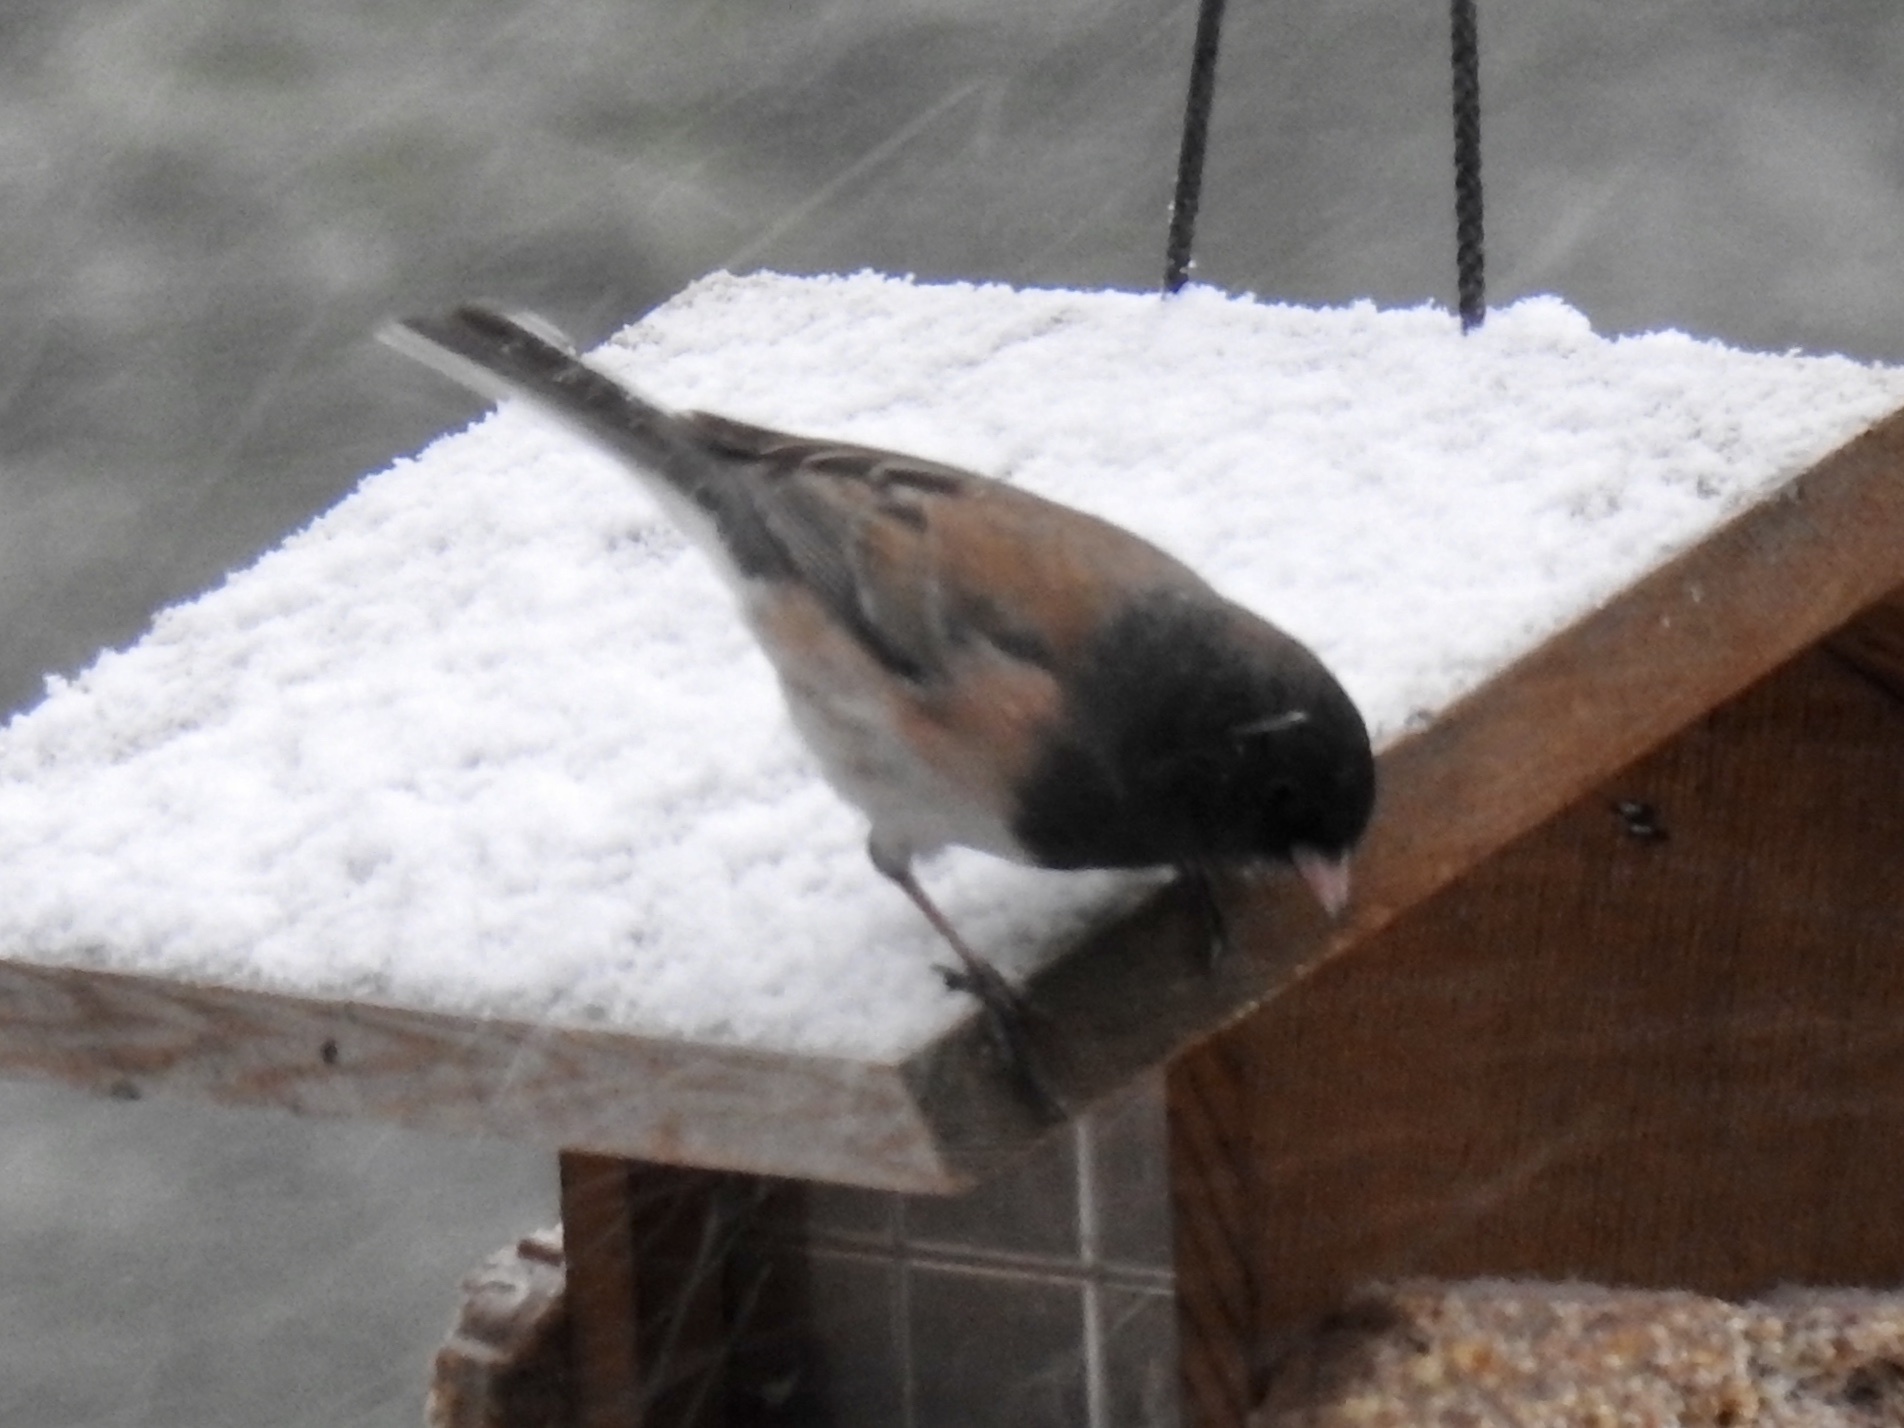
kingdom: Animalia
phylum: Chordata
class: Aves
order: Passeriformes
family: Passerellidae
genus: Junco
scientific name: Junco hyemalis
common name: Dark-eyed junco
